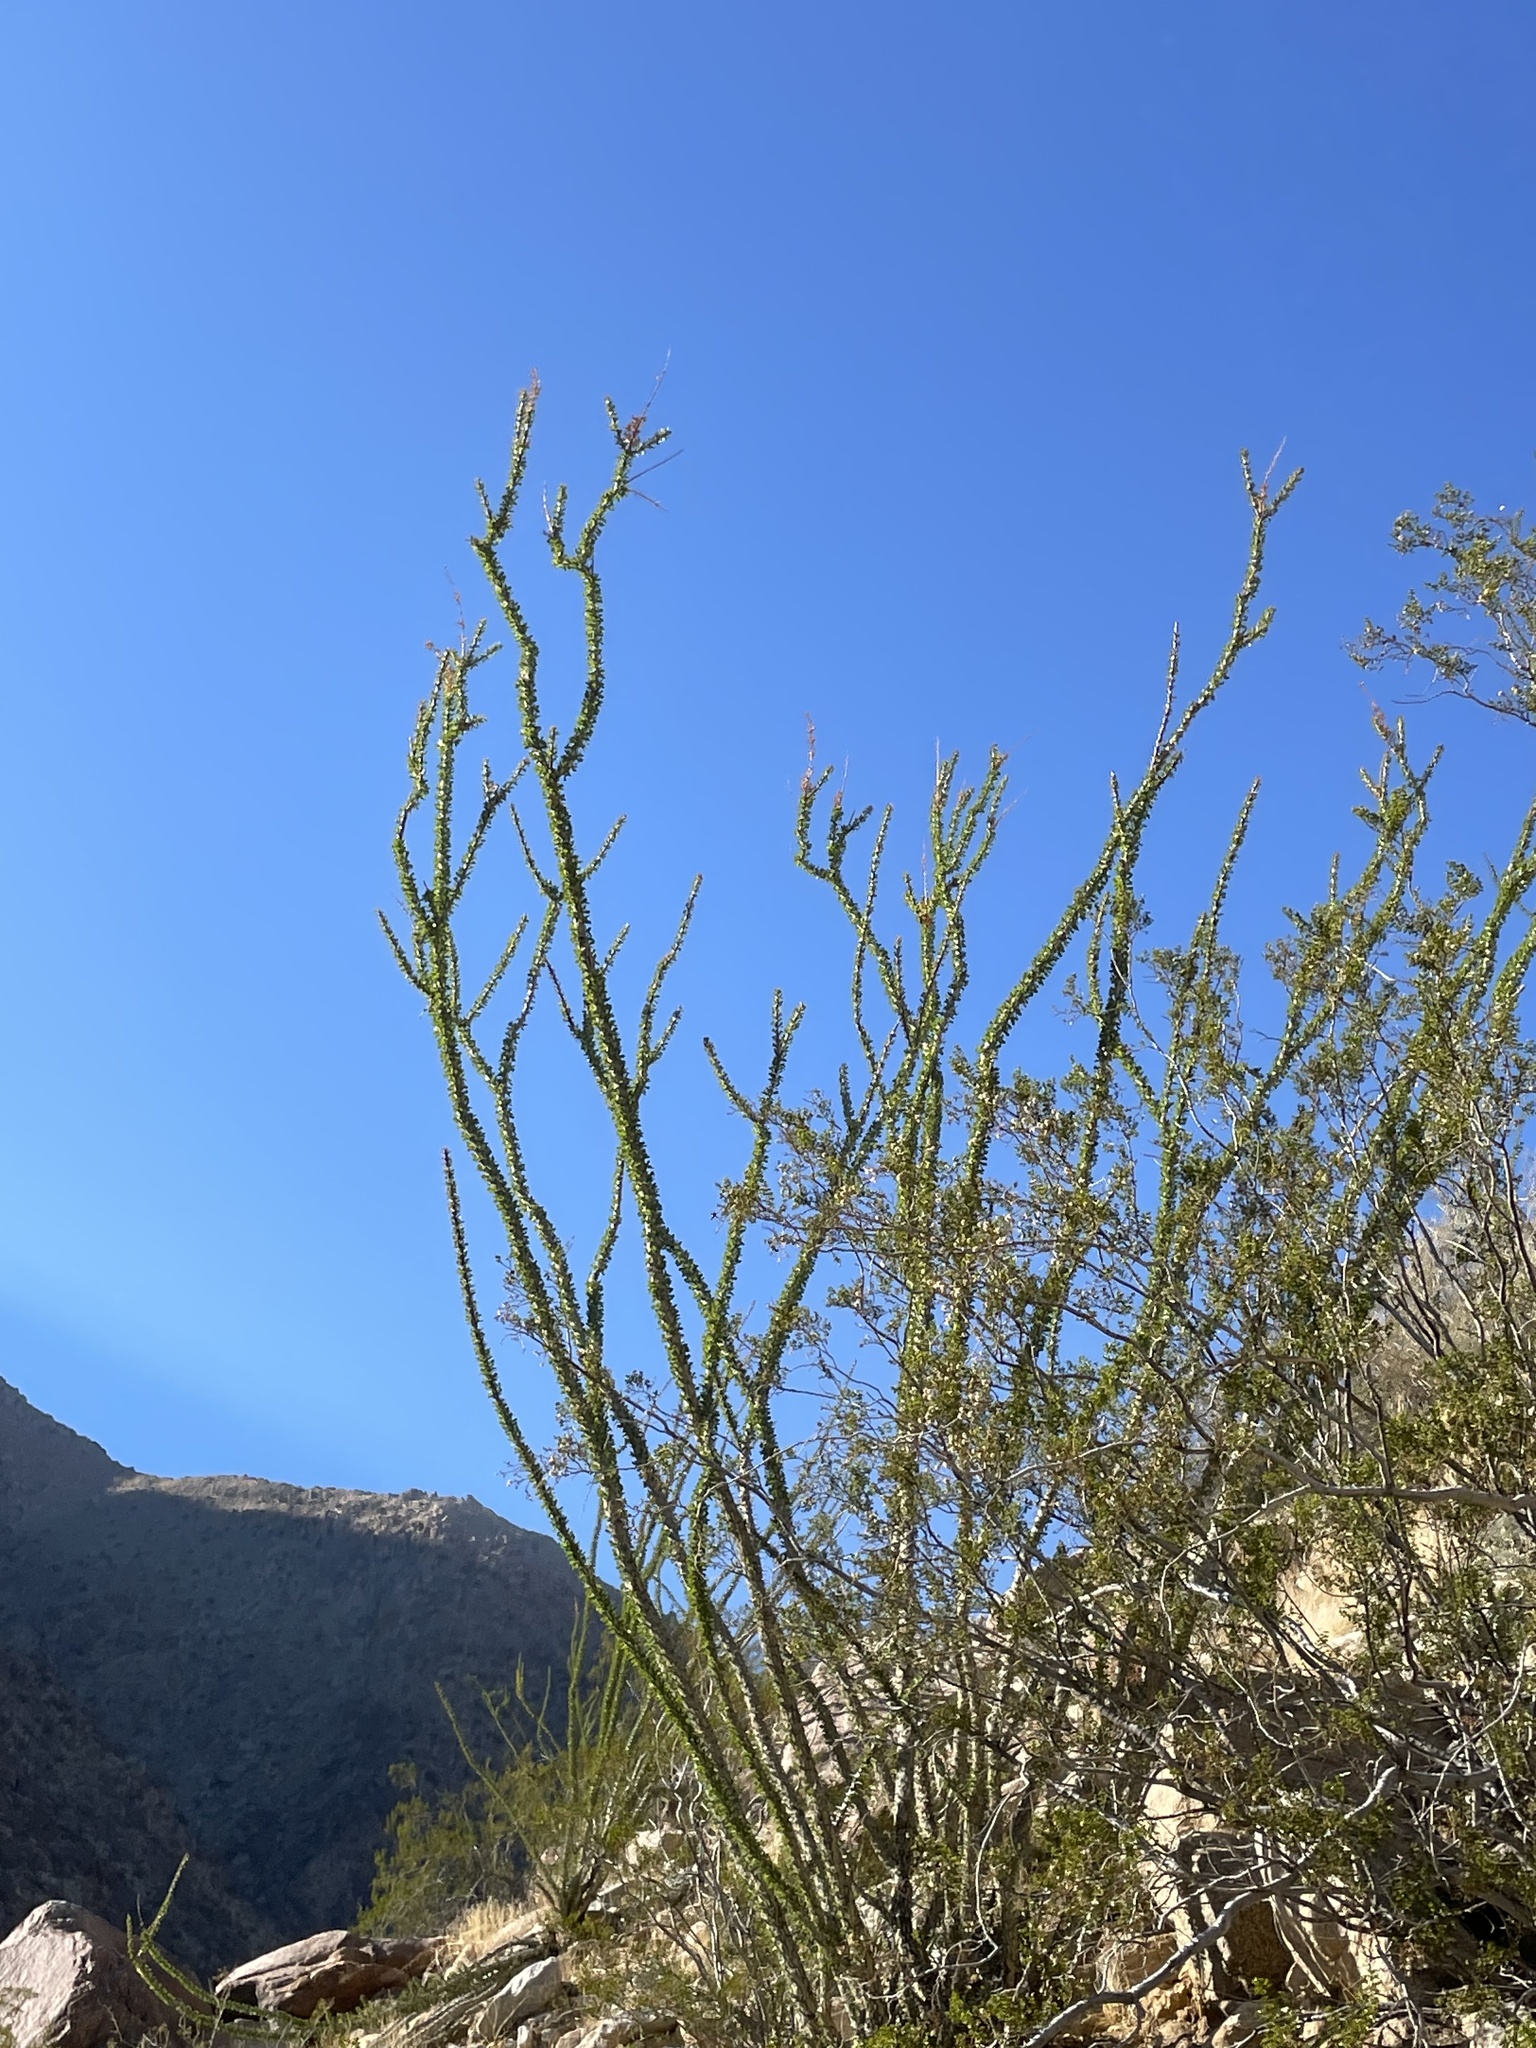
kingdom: Plantae
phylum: Tracheophyta
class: Magnoliopsida
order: Ericales
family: Fouquieriaceae
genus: Fouquieria
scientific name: Fouquieria splendens
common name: Vine-cactus
